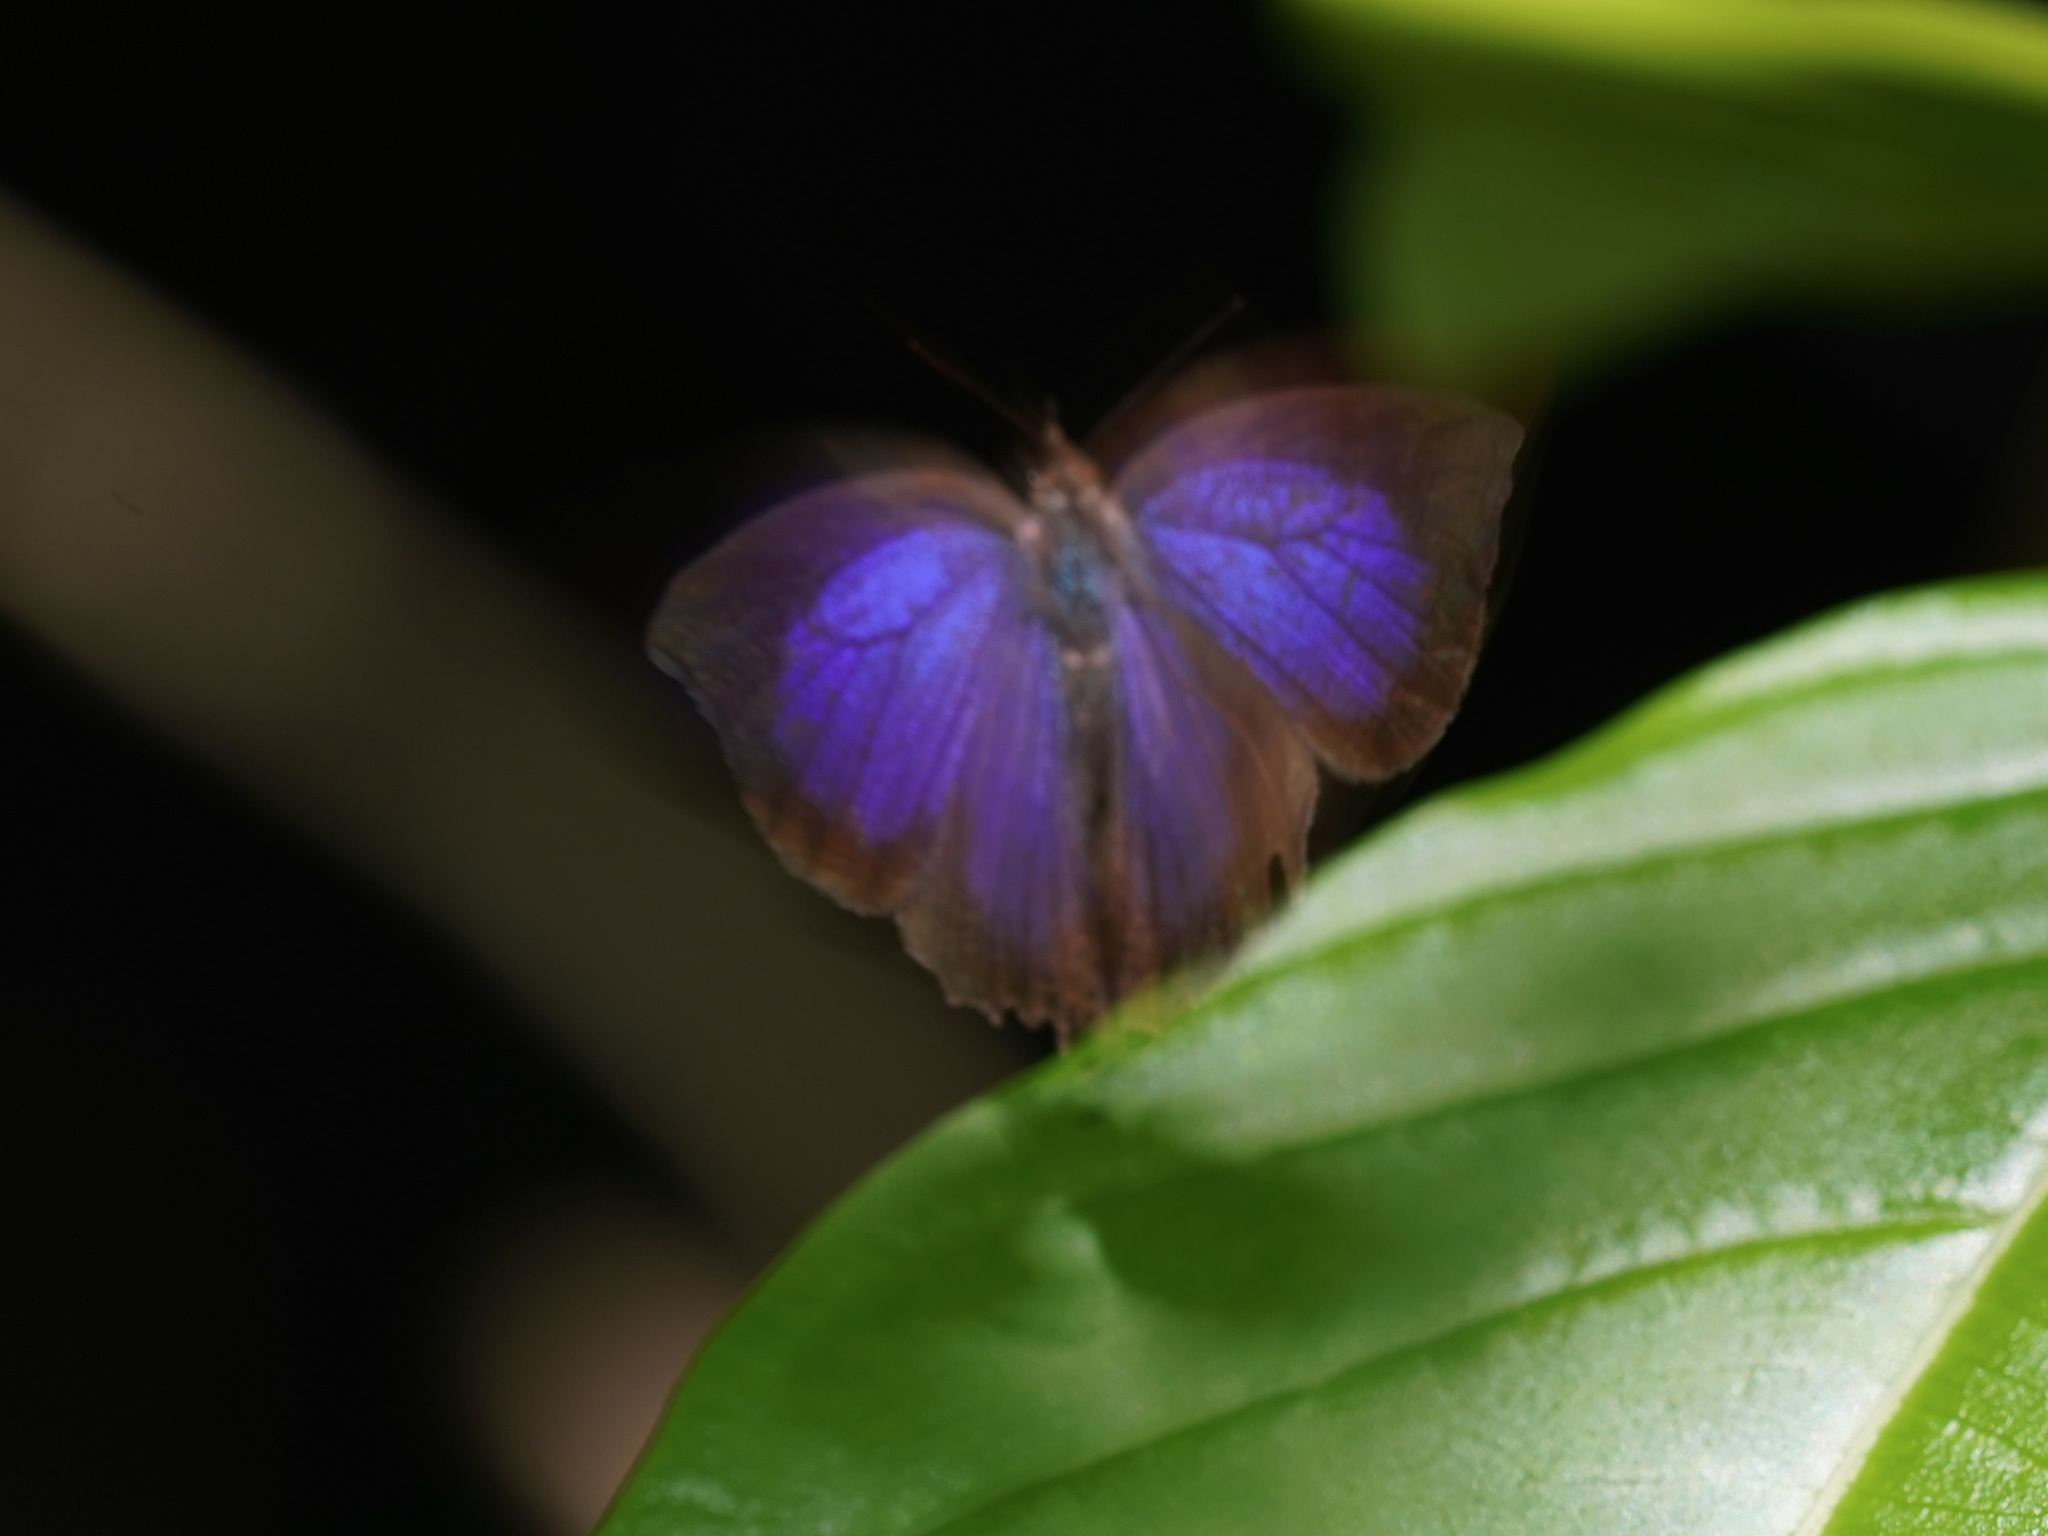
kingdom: Animalia
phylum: Arthropoda
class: Insecta
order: Lepidoptera
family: Lycaenidae
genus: Flos
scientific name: Flos apidanus
